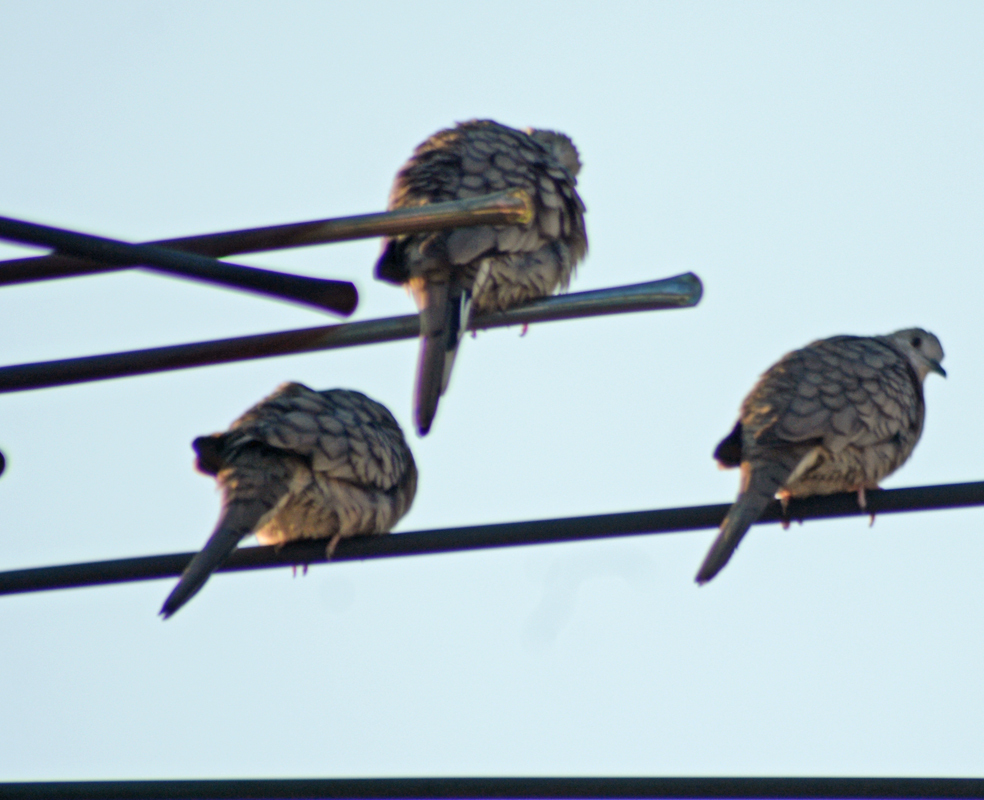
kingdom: Animalia
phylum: Chordata
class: Aves
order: Columbiformes
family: Columbidae
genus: Columbina
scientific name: Columbina inca
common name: Inca dove
